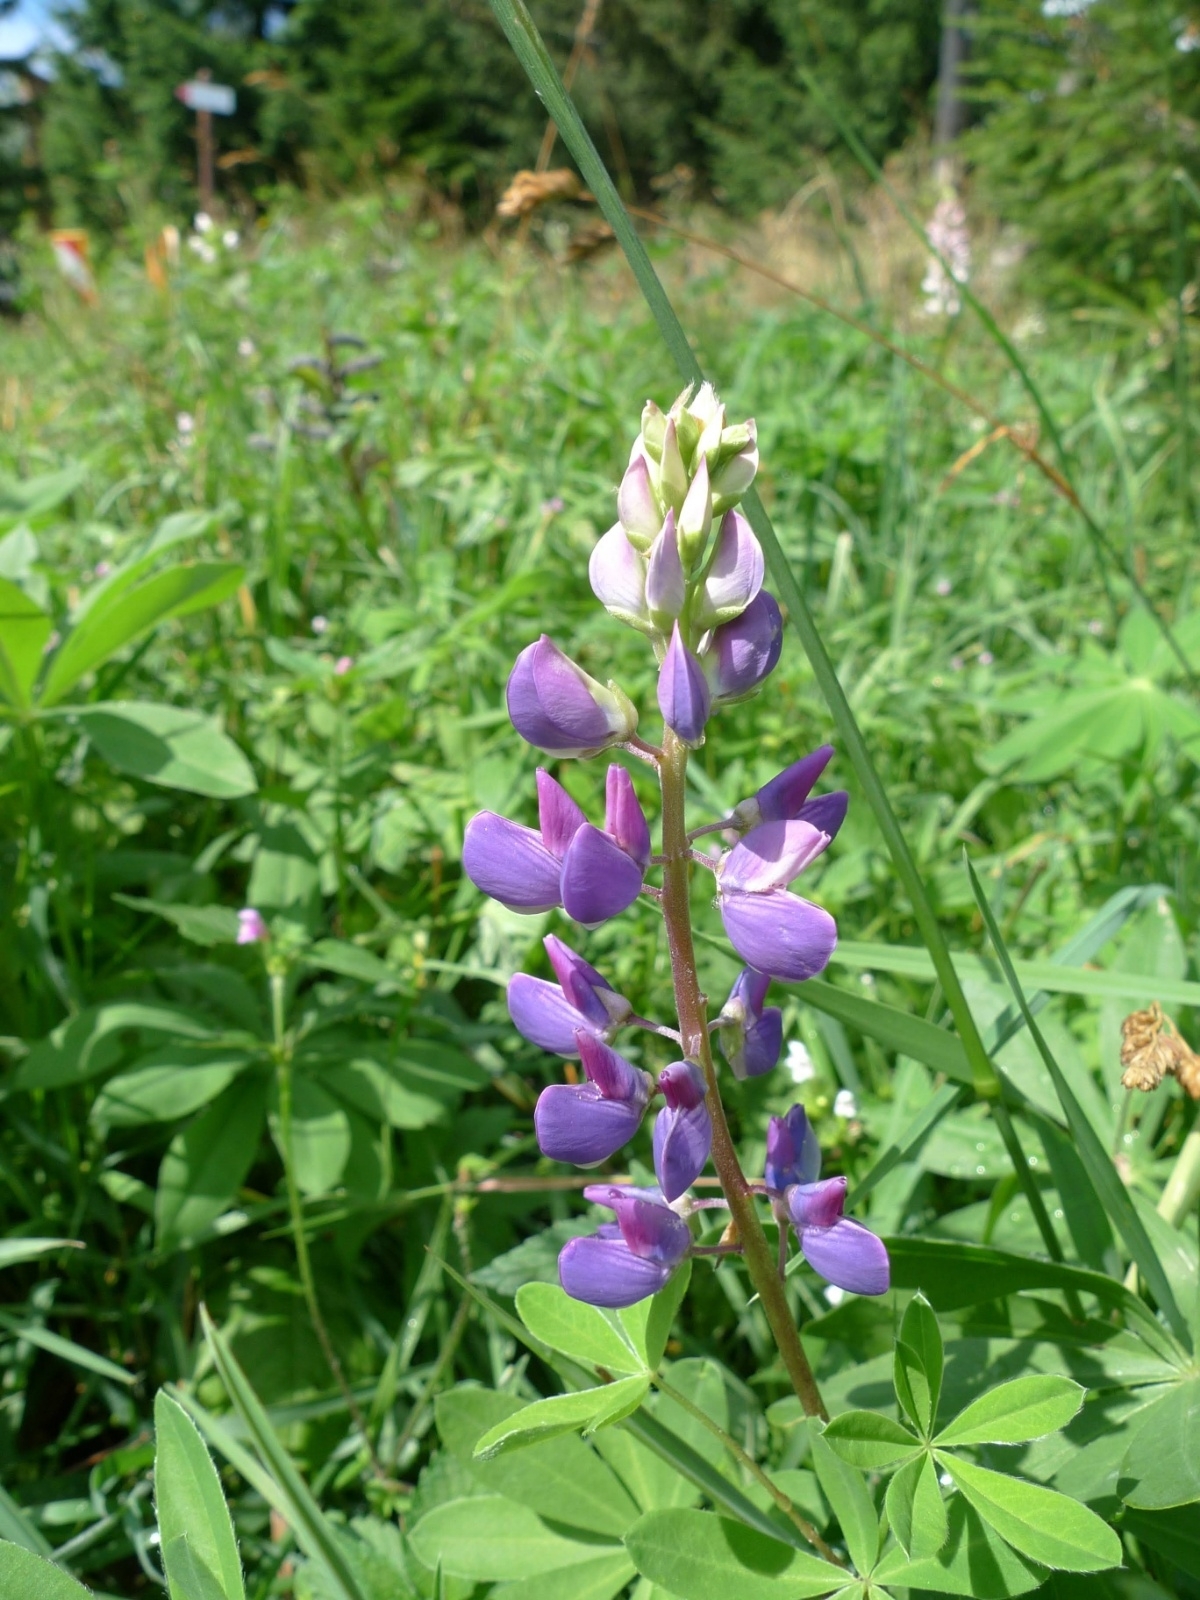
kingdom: Plantae
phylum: Tracheophyta
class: Magnoliopsida
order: Fabales
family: Fabaceae
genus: Lupinus
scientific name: Lupinus polyphyllus
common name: Garden lupin
